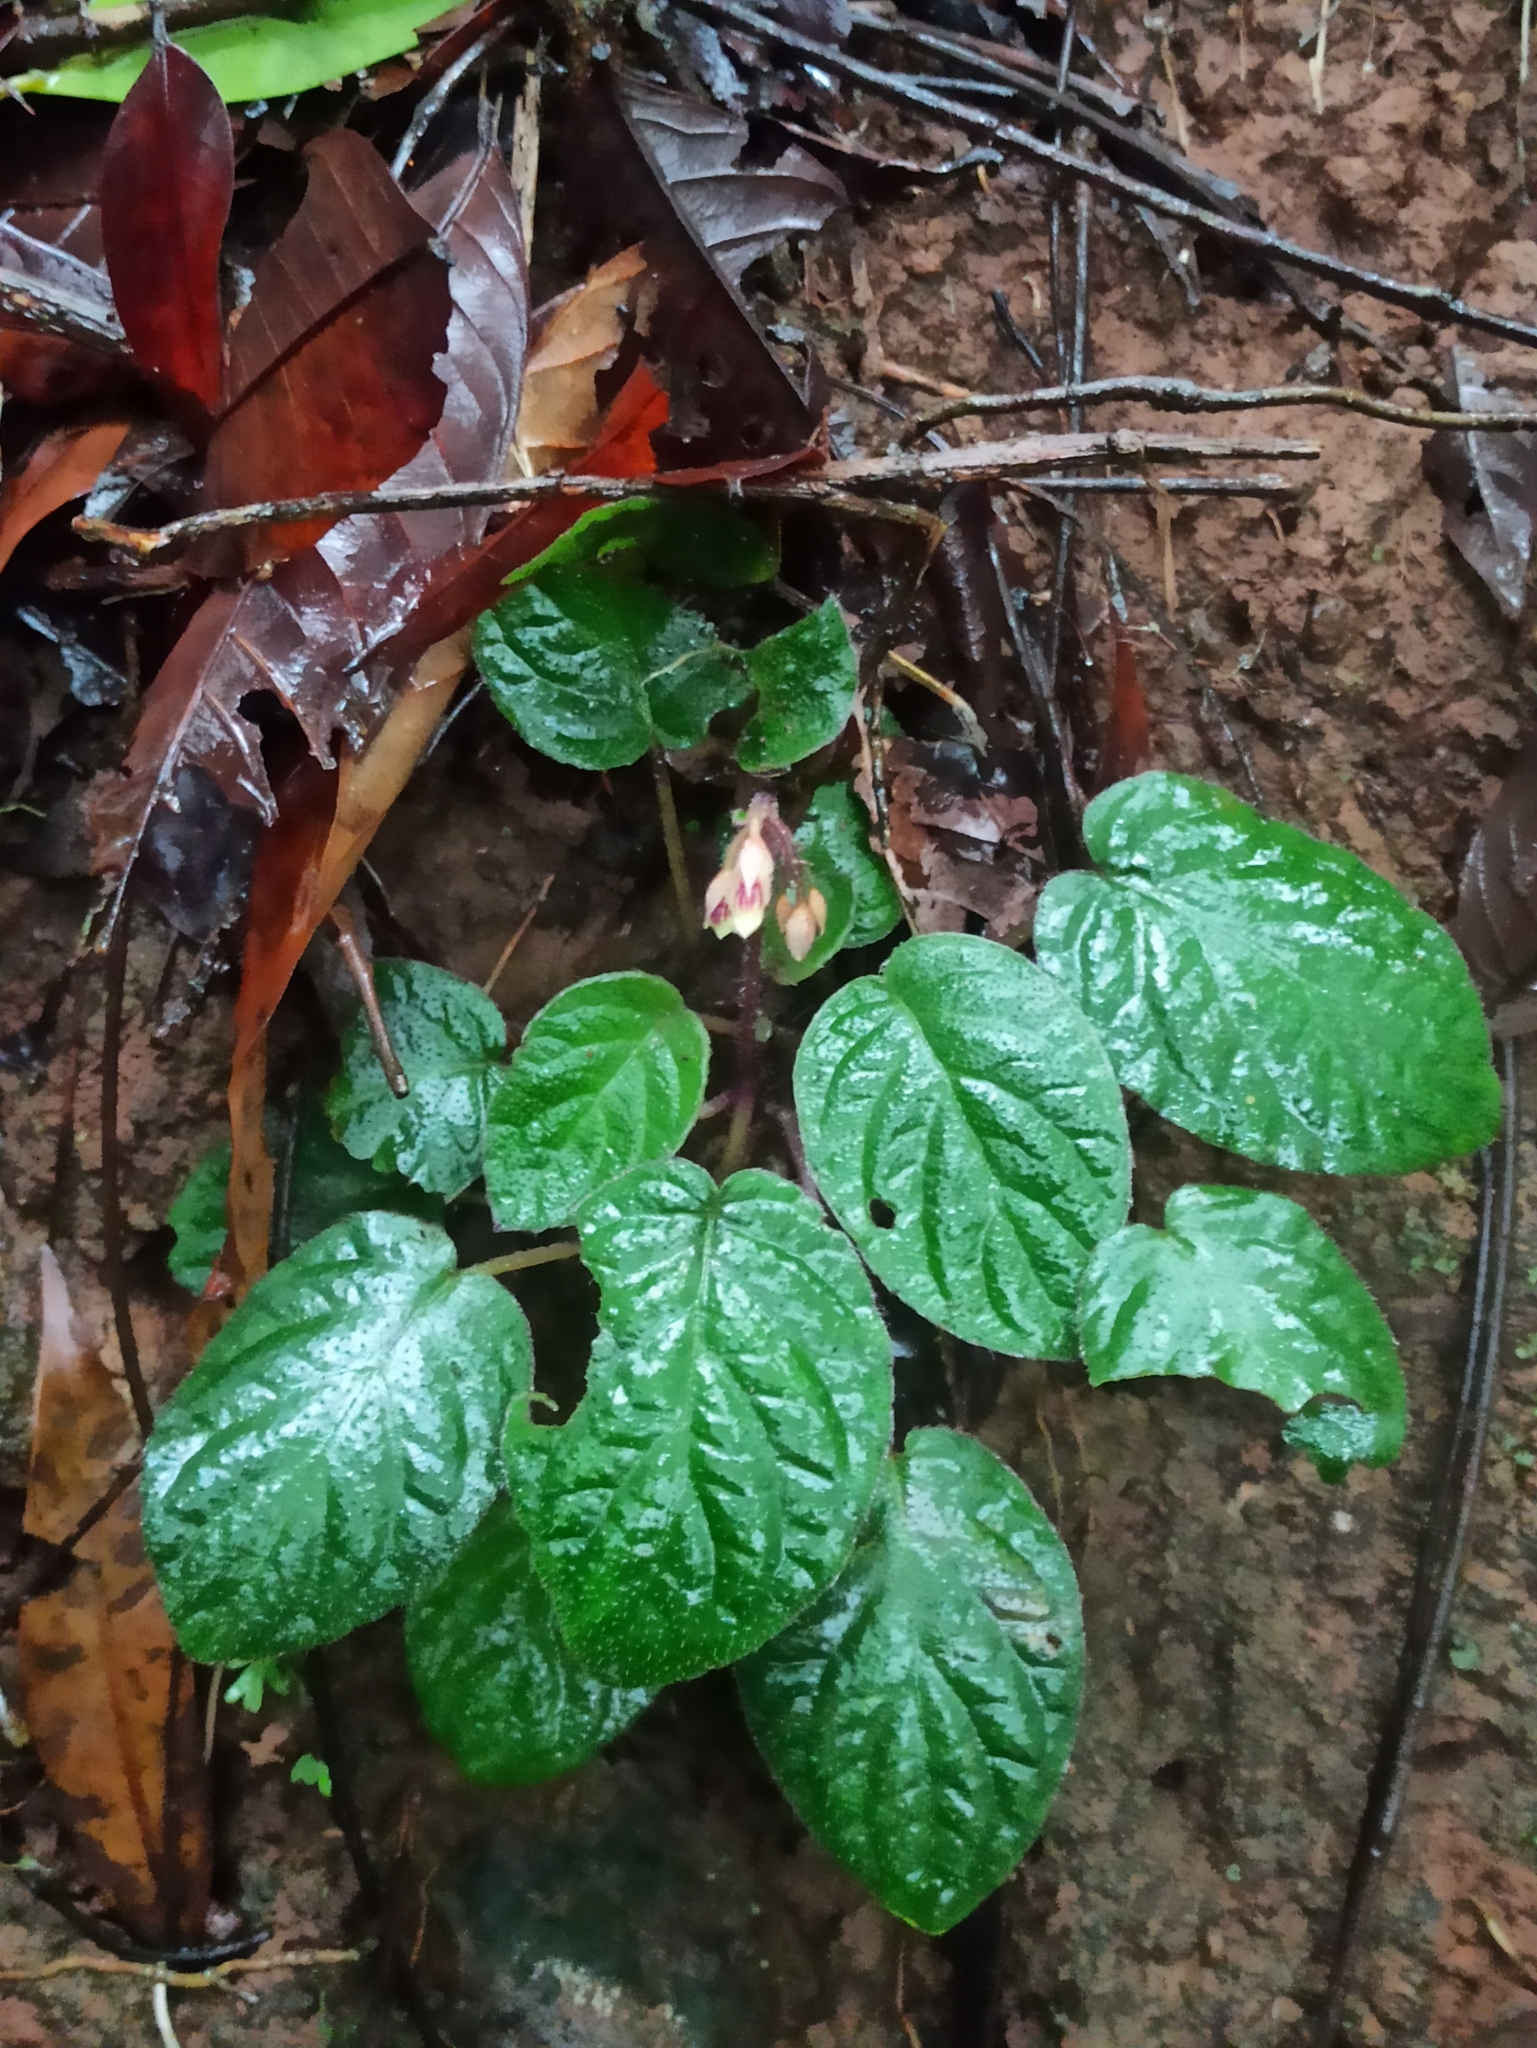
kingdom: Plantae
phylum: Tracheophyta
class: Magnoliopsida
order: Lamiales
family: Gesneriaceae
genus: Jerdonia
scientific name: Jerdonia indica
